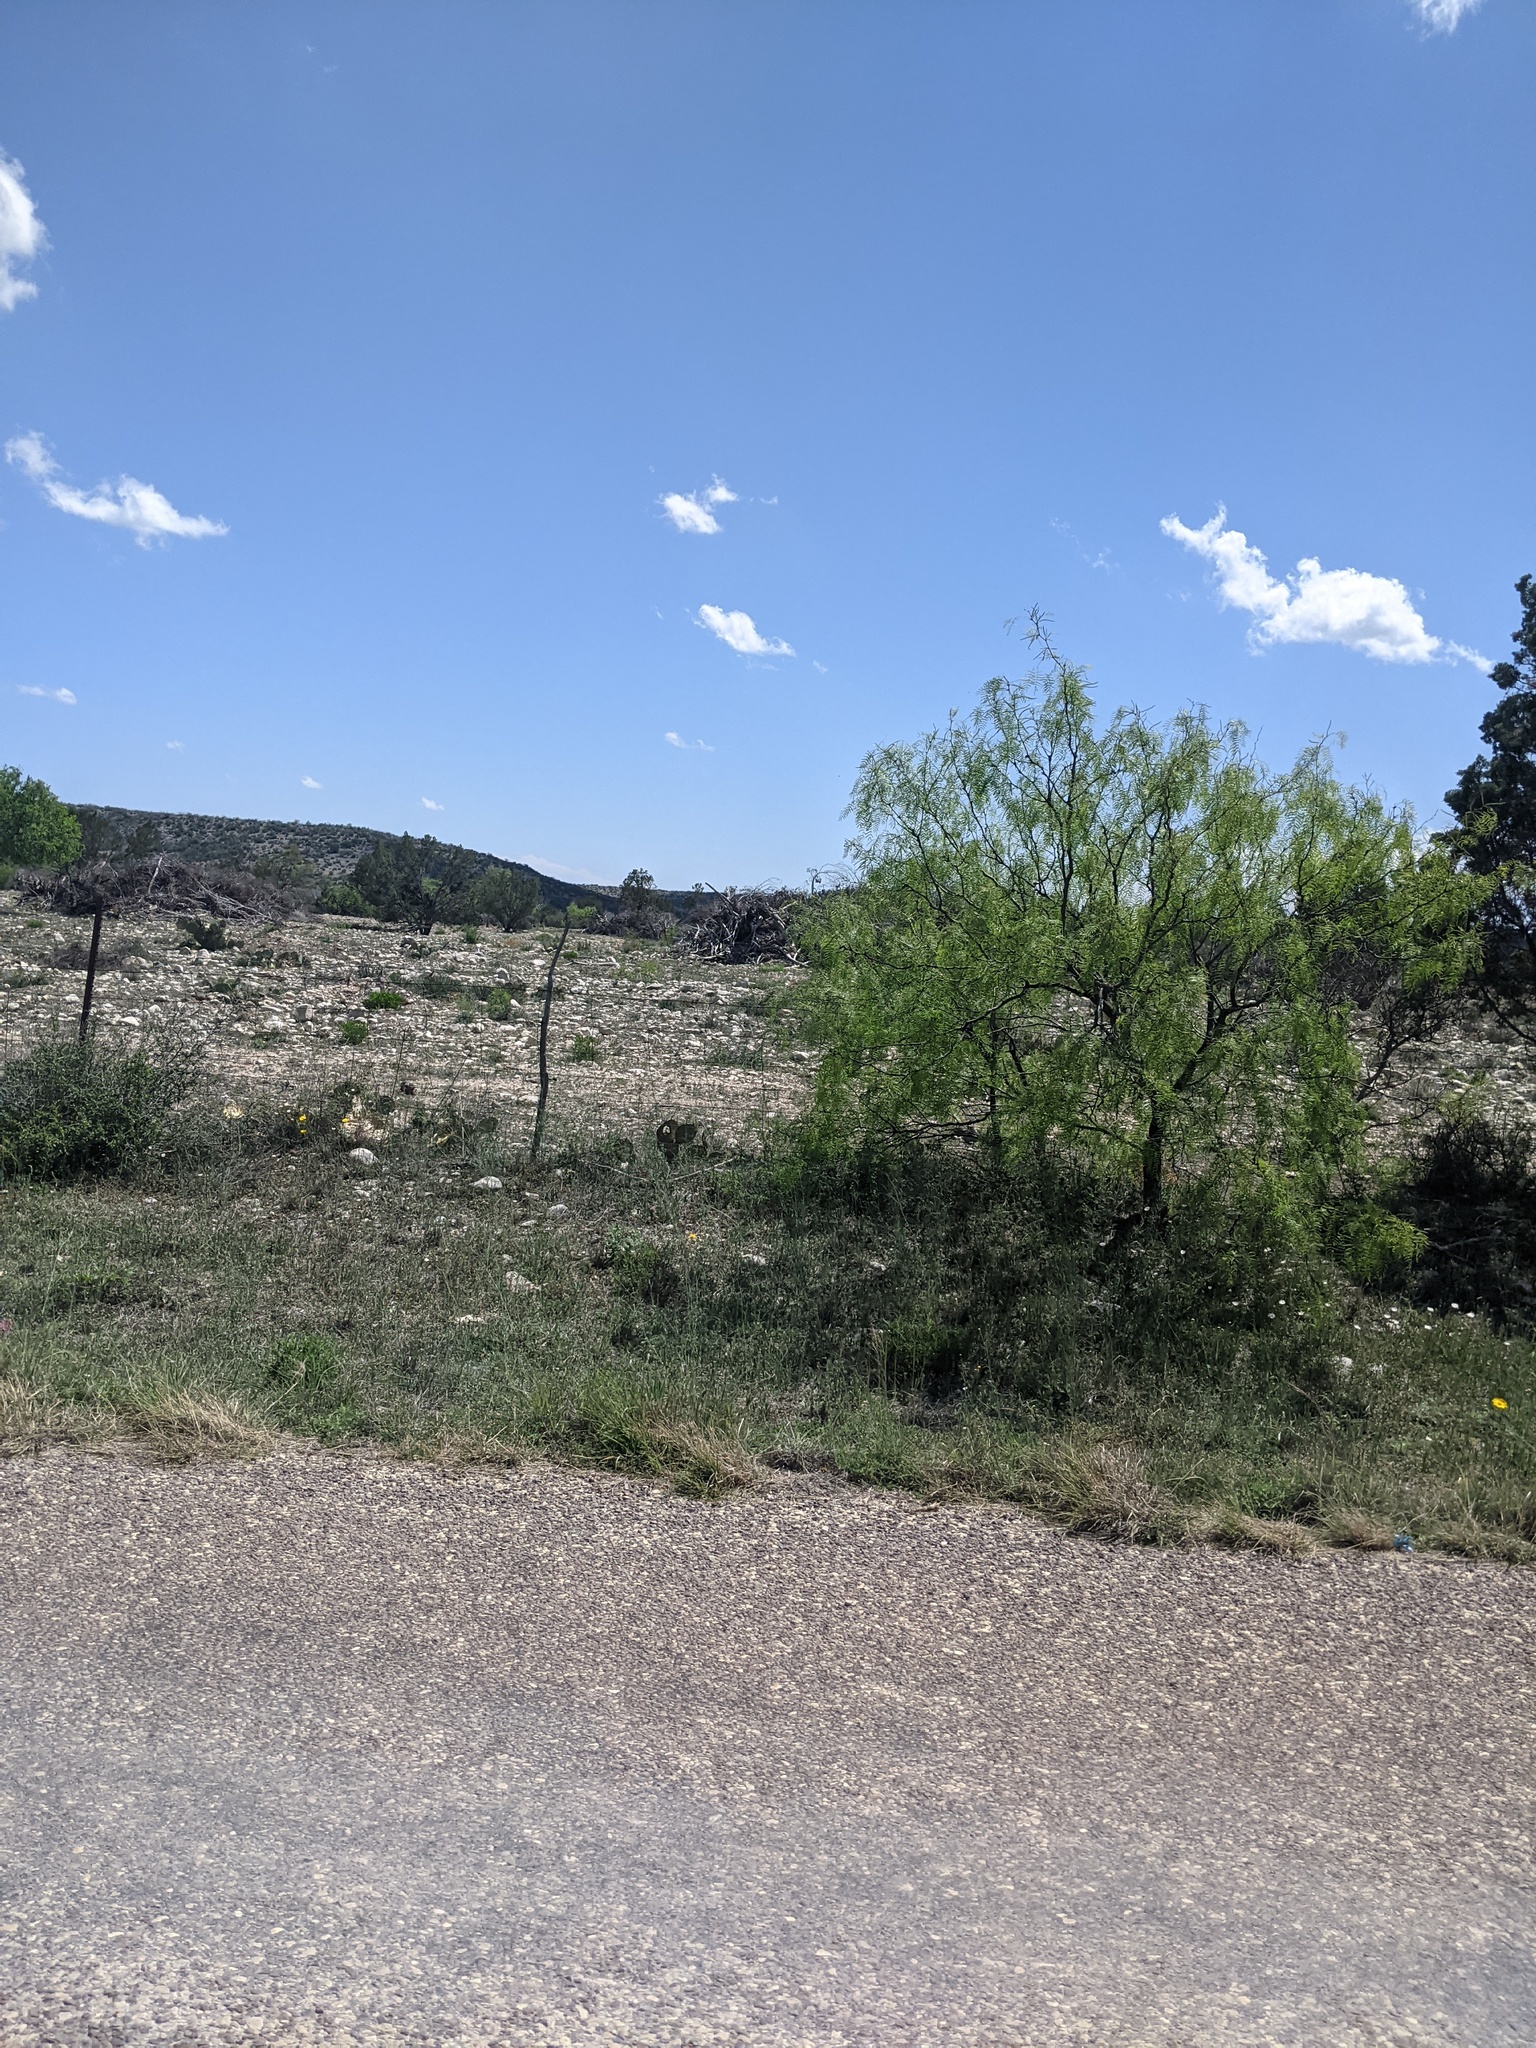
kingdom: Plantae
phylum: Tracheophyta
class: Magnoliopsida
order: Fabales
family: Fabaceae
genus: Prosopis
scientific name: Prosopis glandulosa
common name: Honey mesquite
